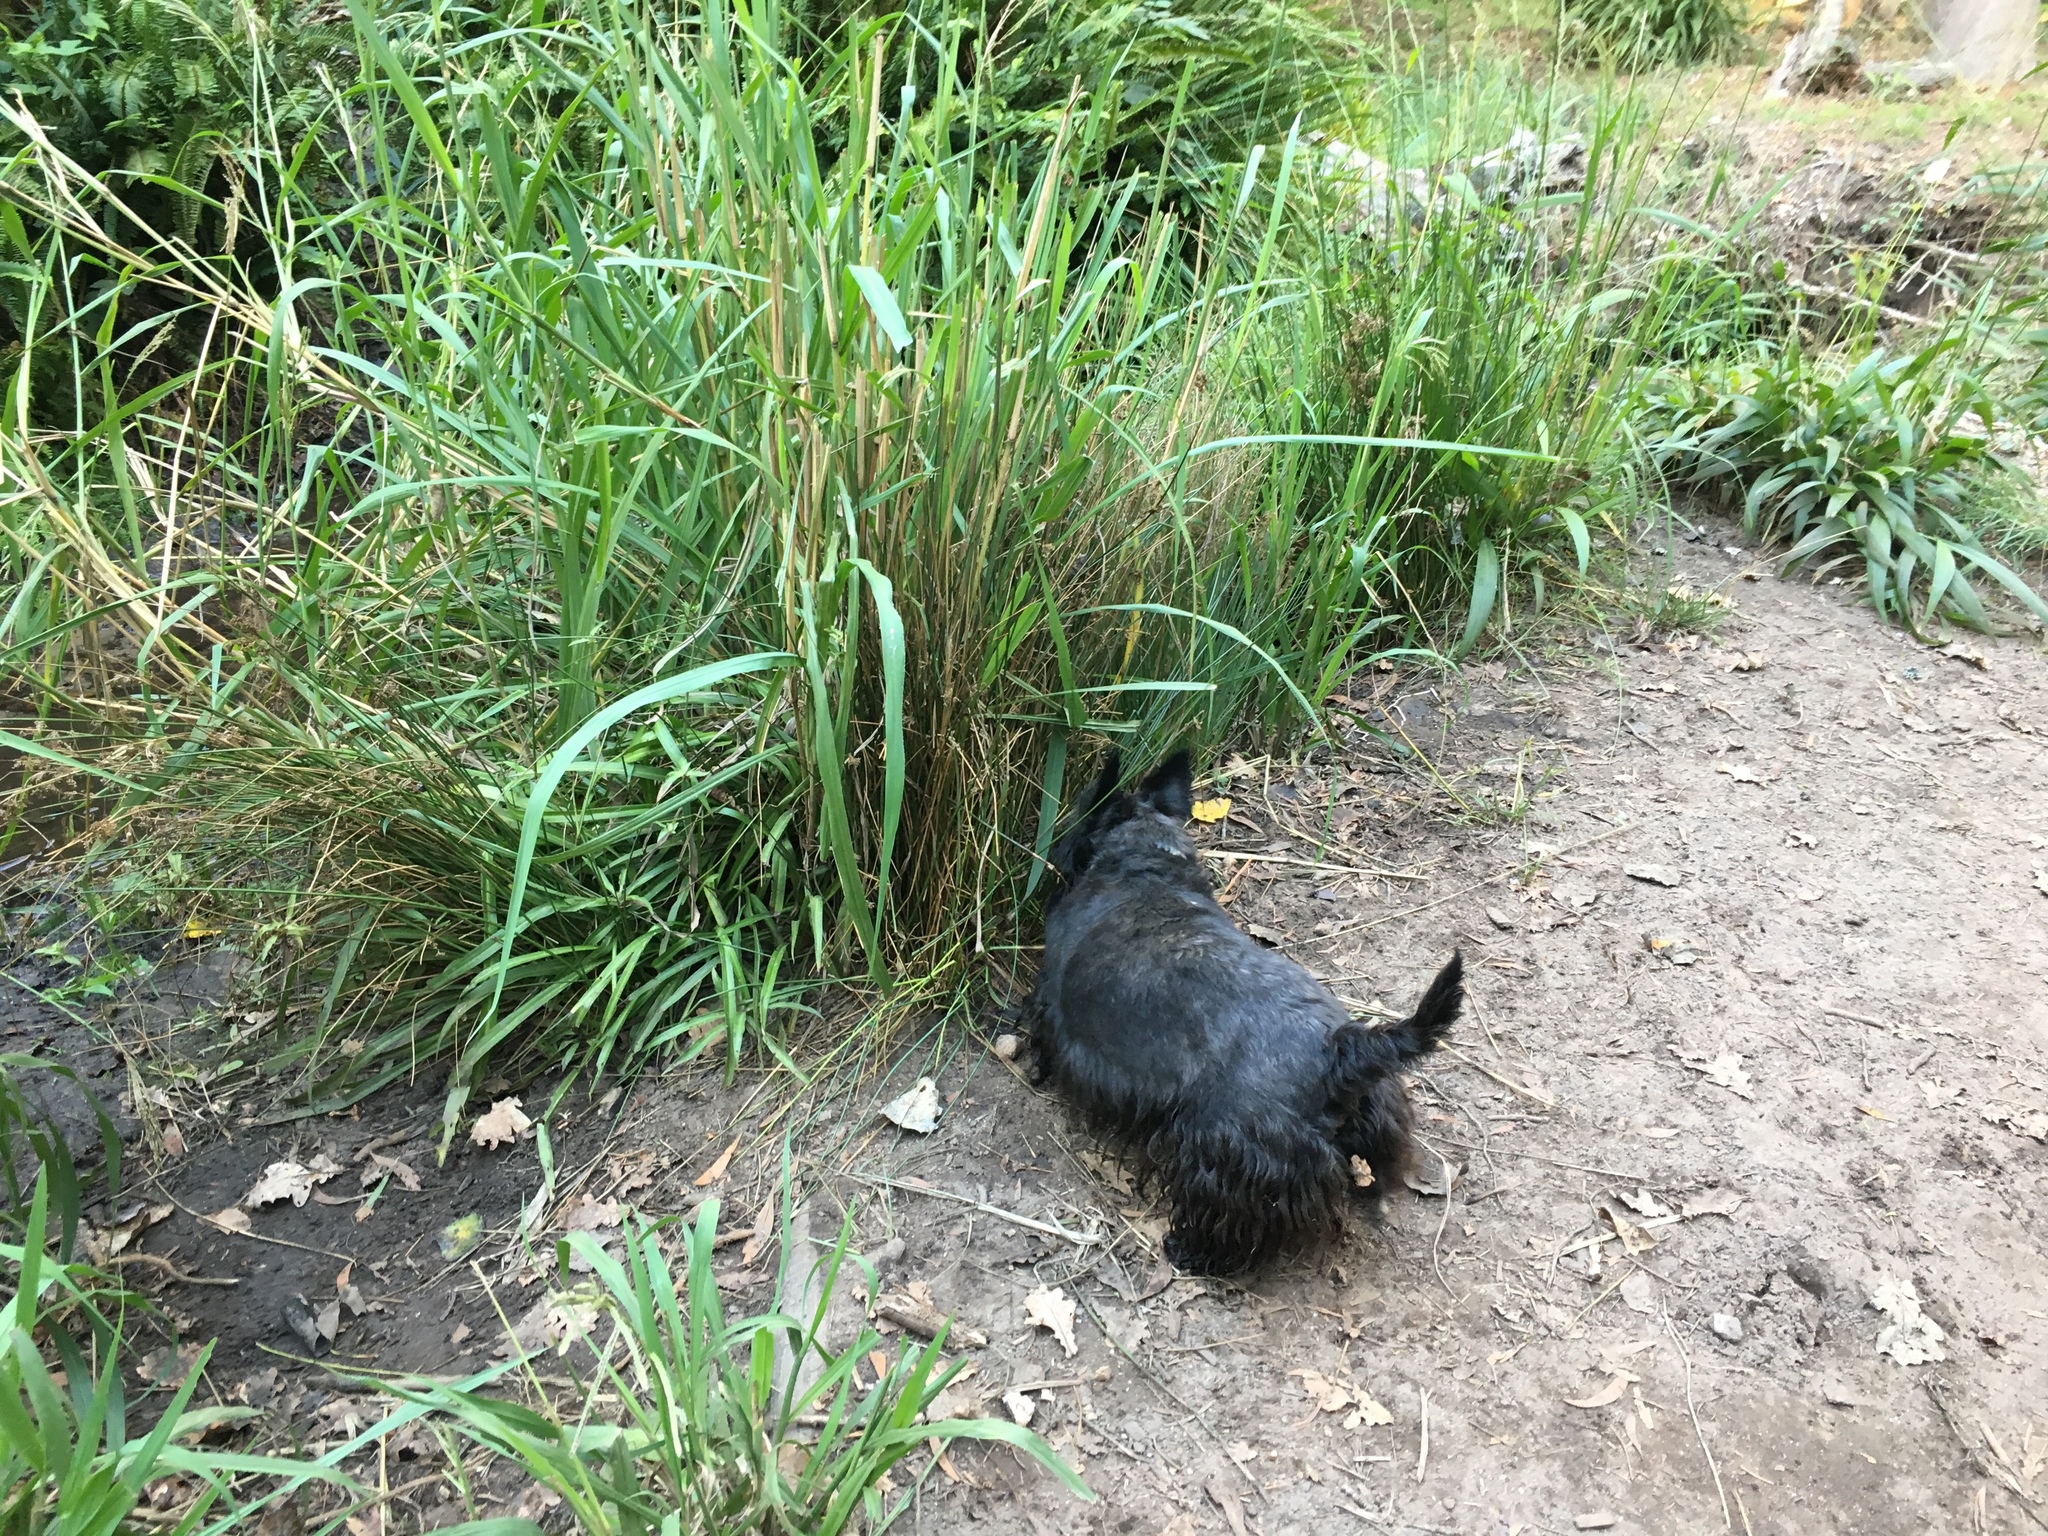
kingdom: Plantae
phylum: Tracheophyta
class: Liliopsida
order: Poales
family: Poaceae
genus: Setaria
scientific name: Setaria megaphylla
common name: Bigleaf bristlegrass
